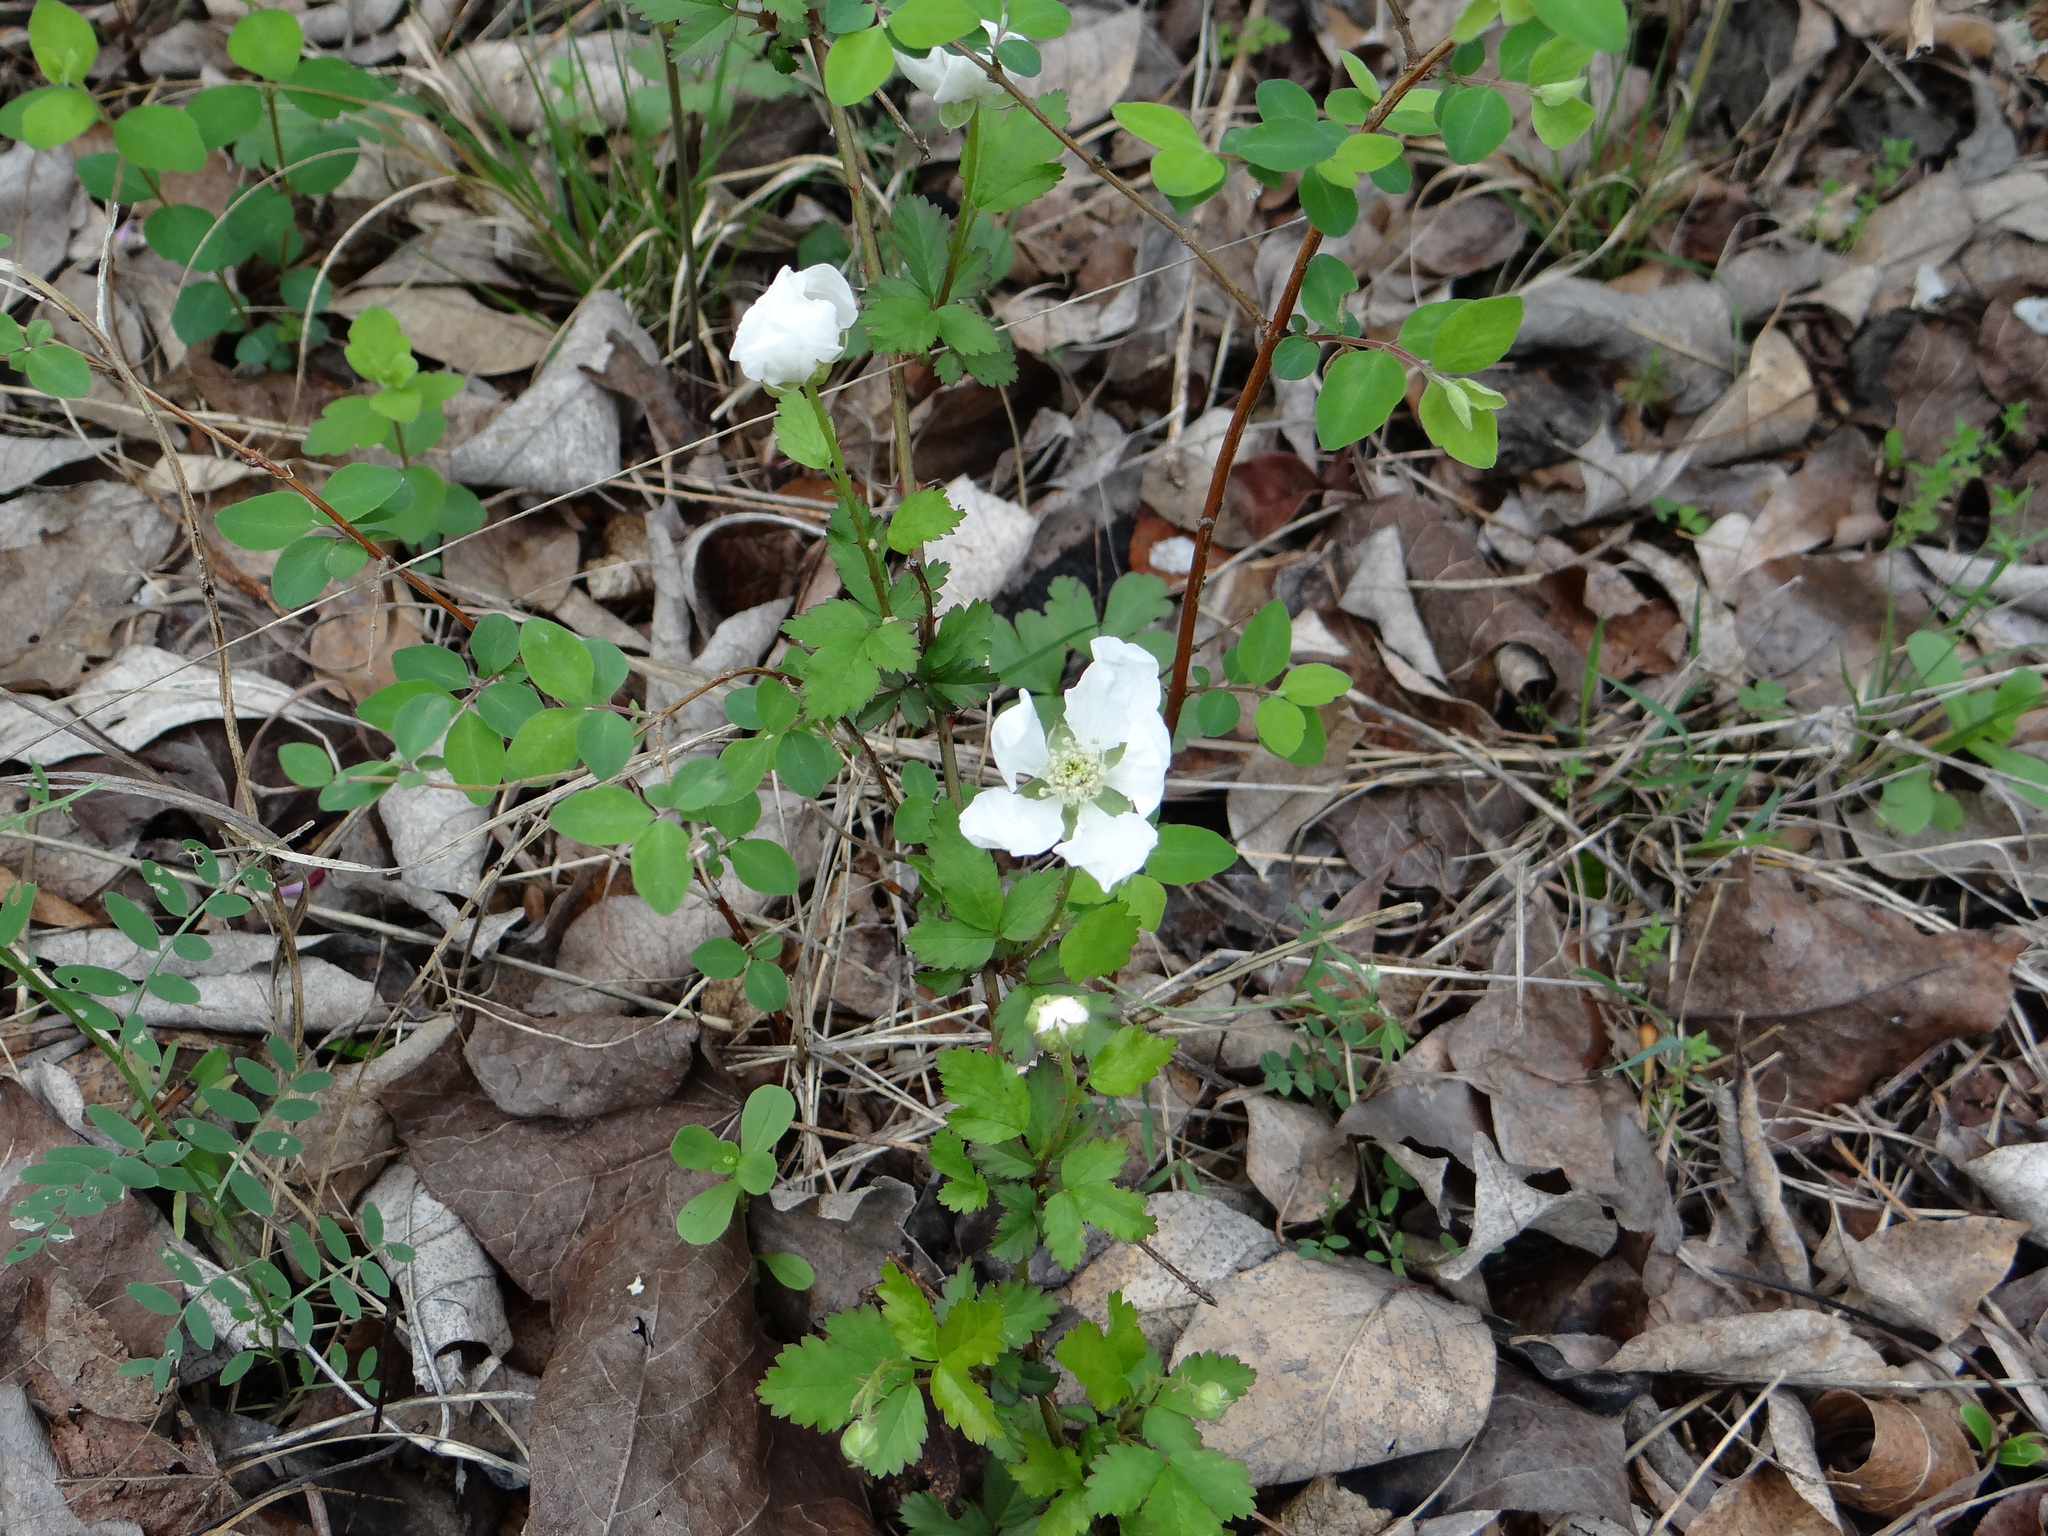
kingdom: Plantae
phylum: Tracheophyta
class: Magnoliopsida
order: Rosales
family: Rosaceae
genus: Rubus
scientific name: Rubus trivialis
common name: Southern dewberry
